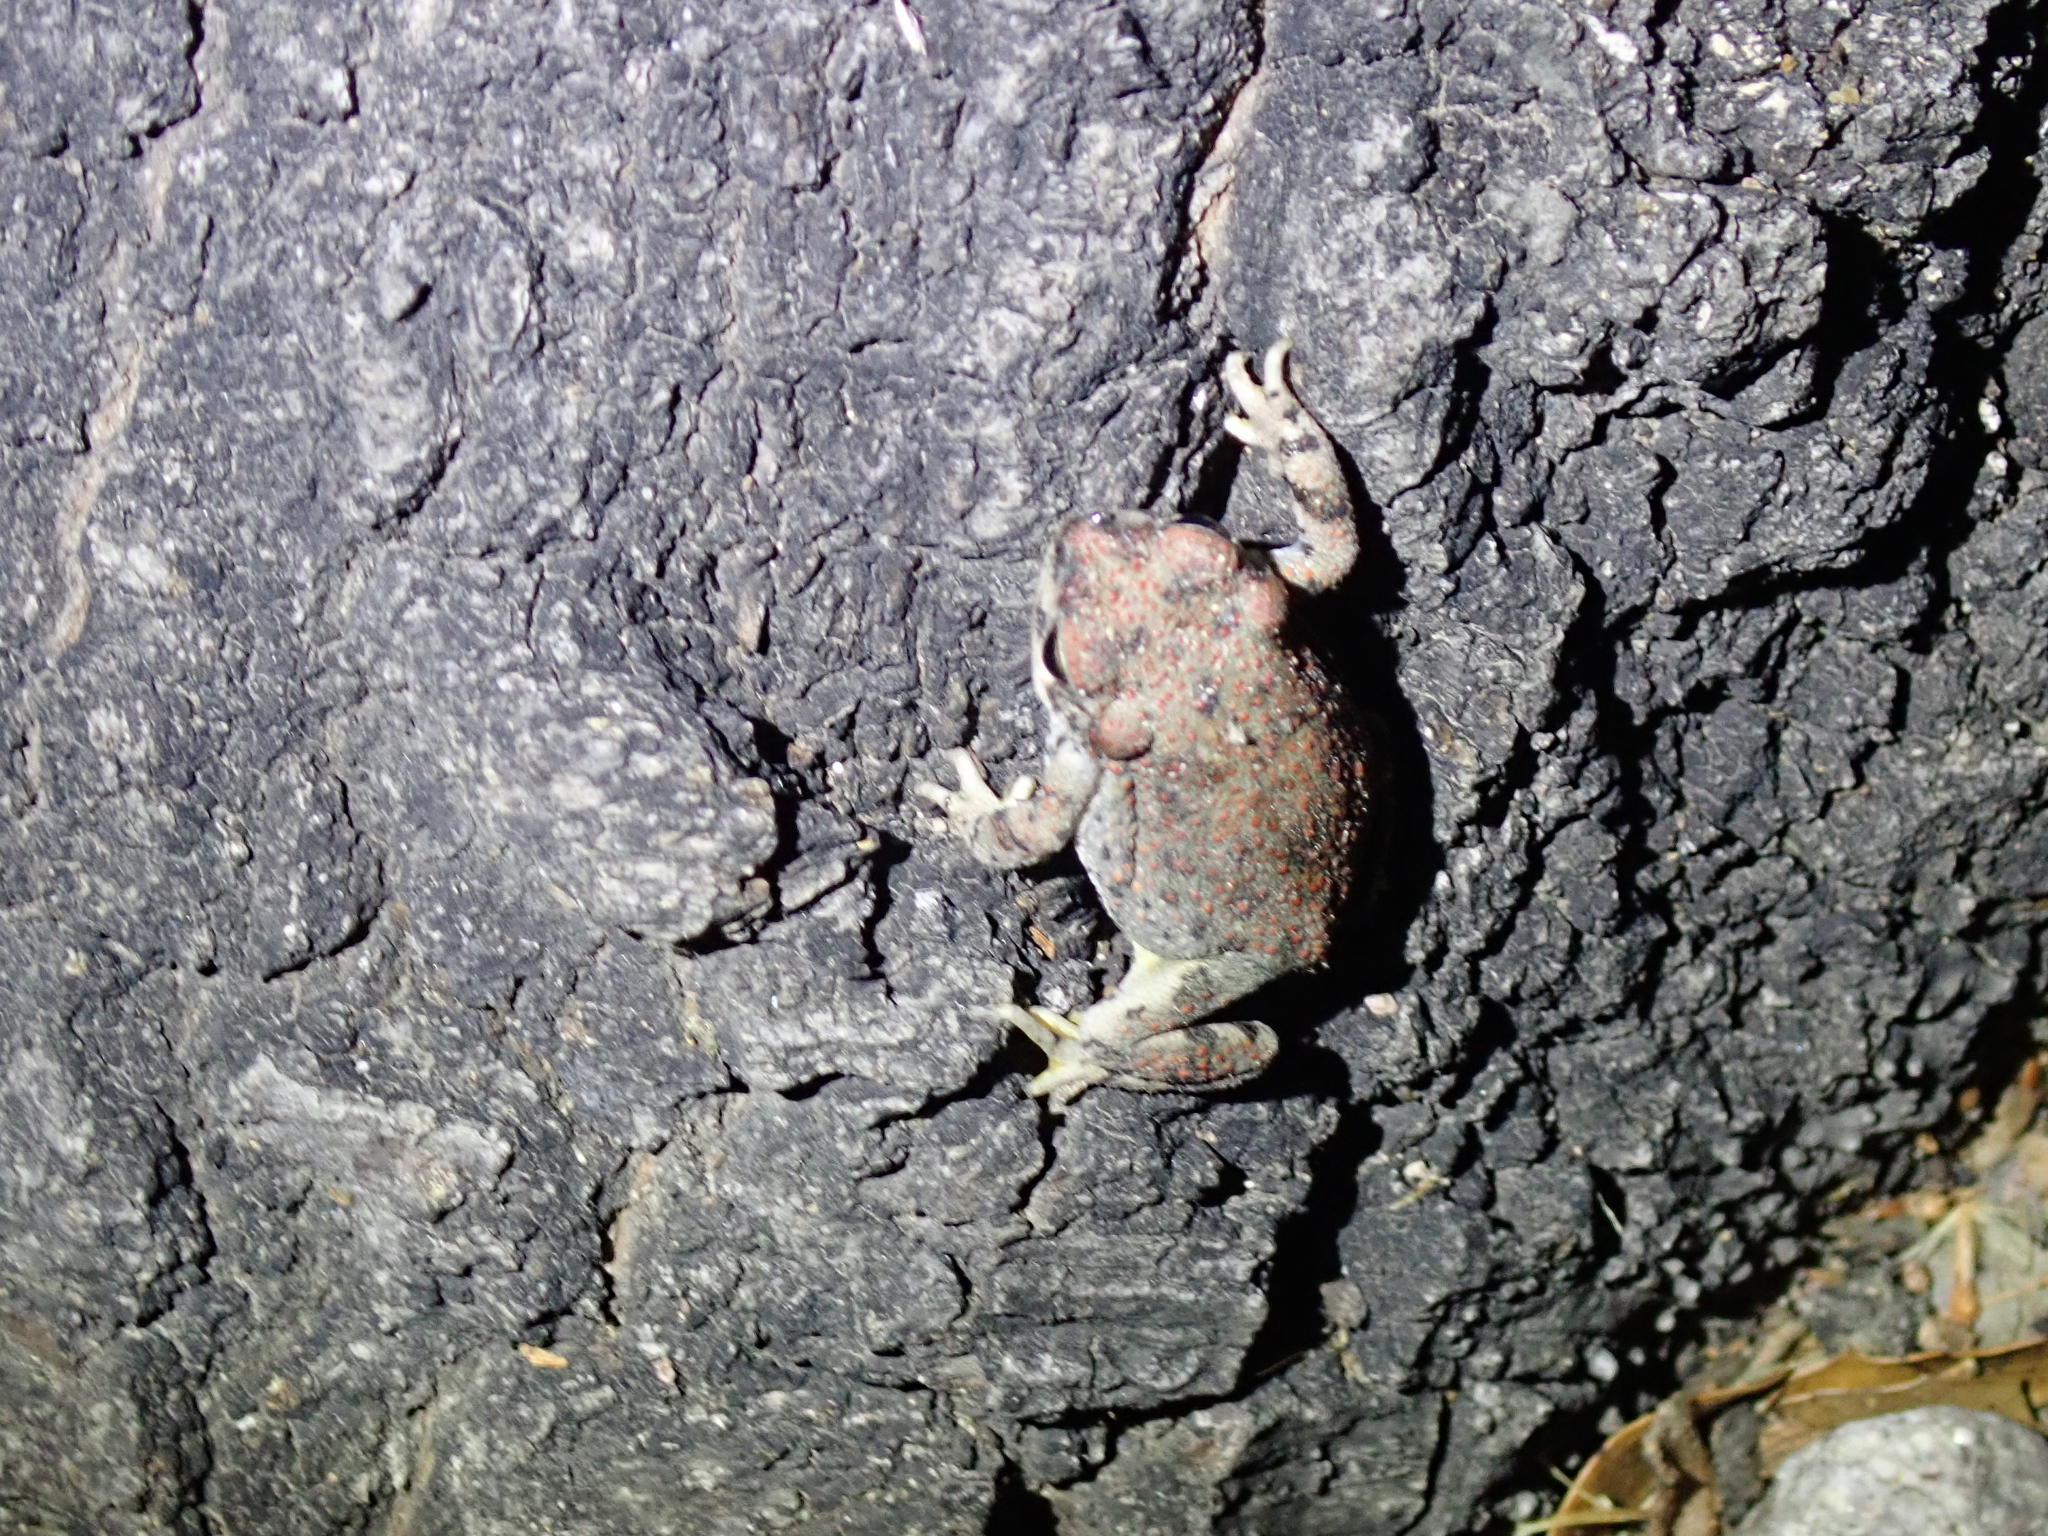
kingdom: Animalia
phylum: Chordata
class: Amphibia
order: Anura
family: Bufonidae
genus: Anaxyrus
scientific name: Anaxyrus punctatus
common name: Red-spotted toad
